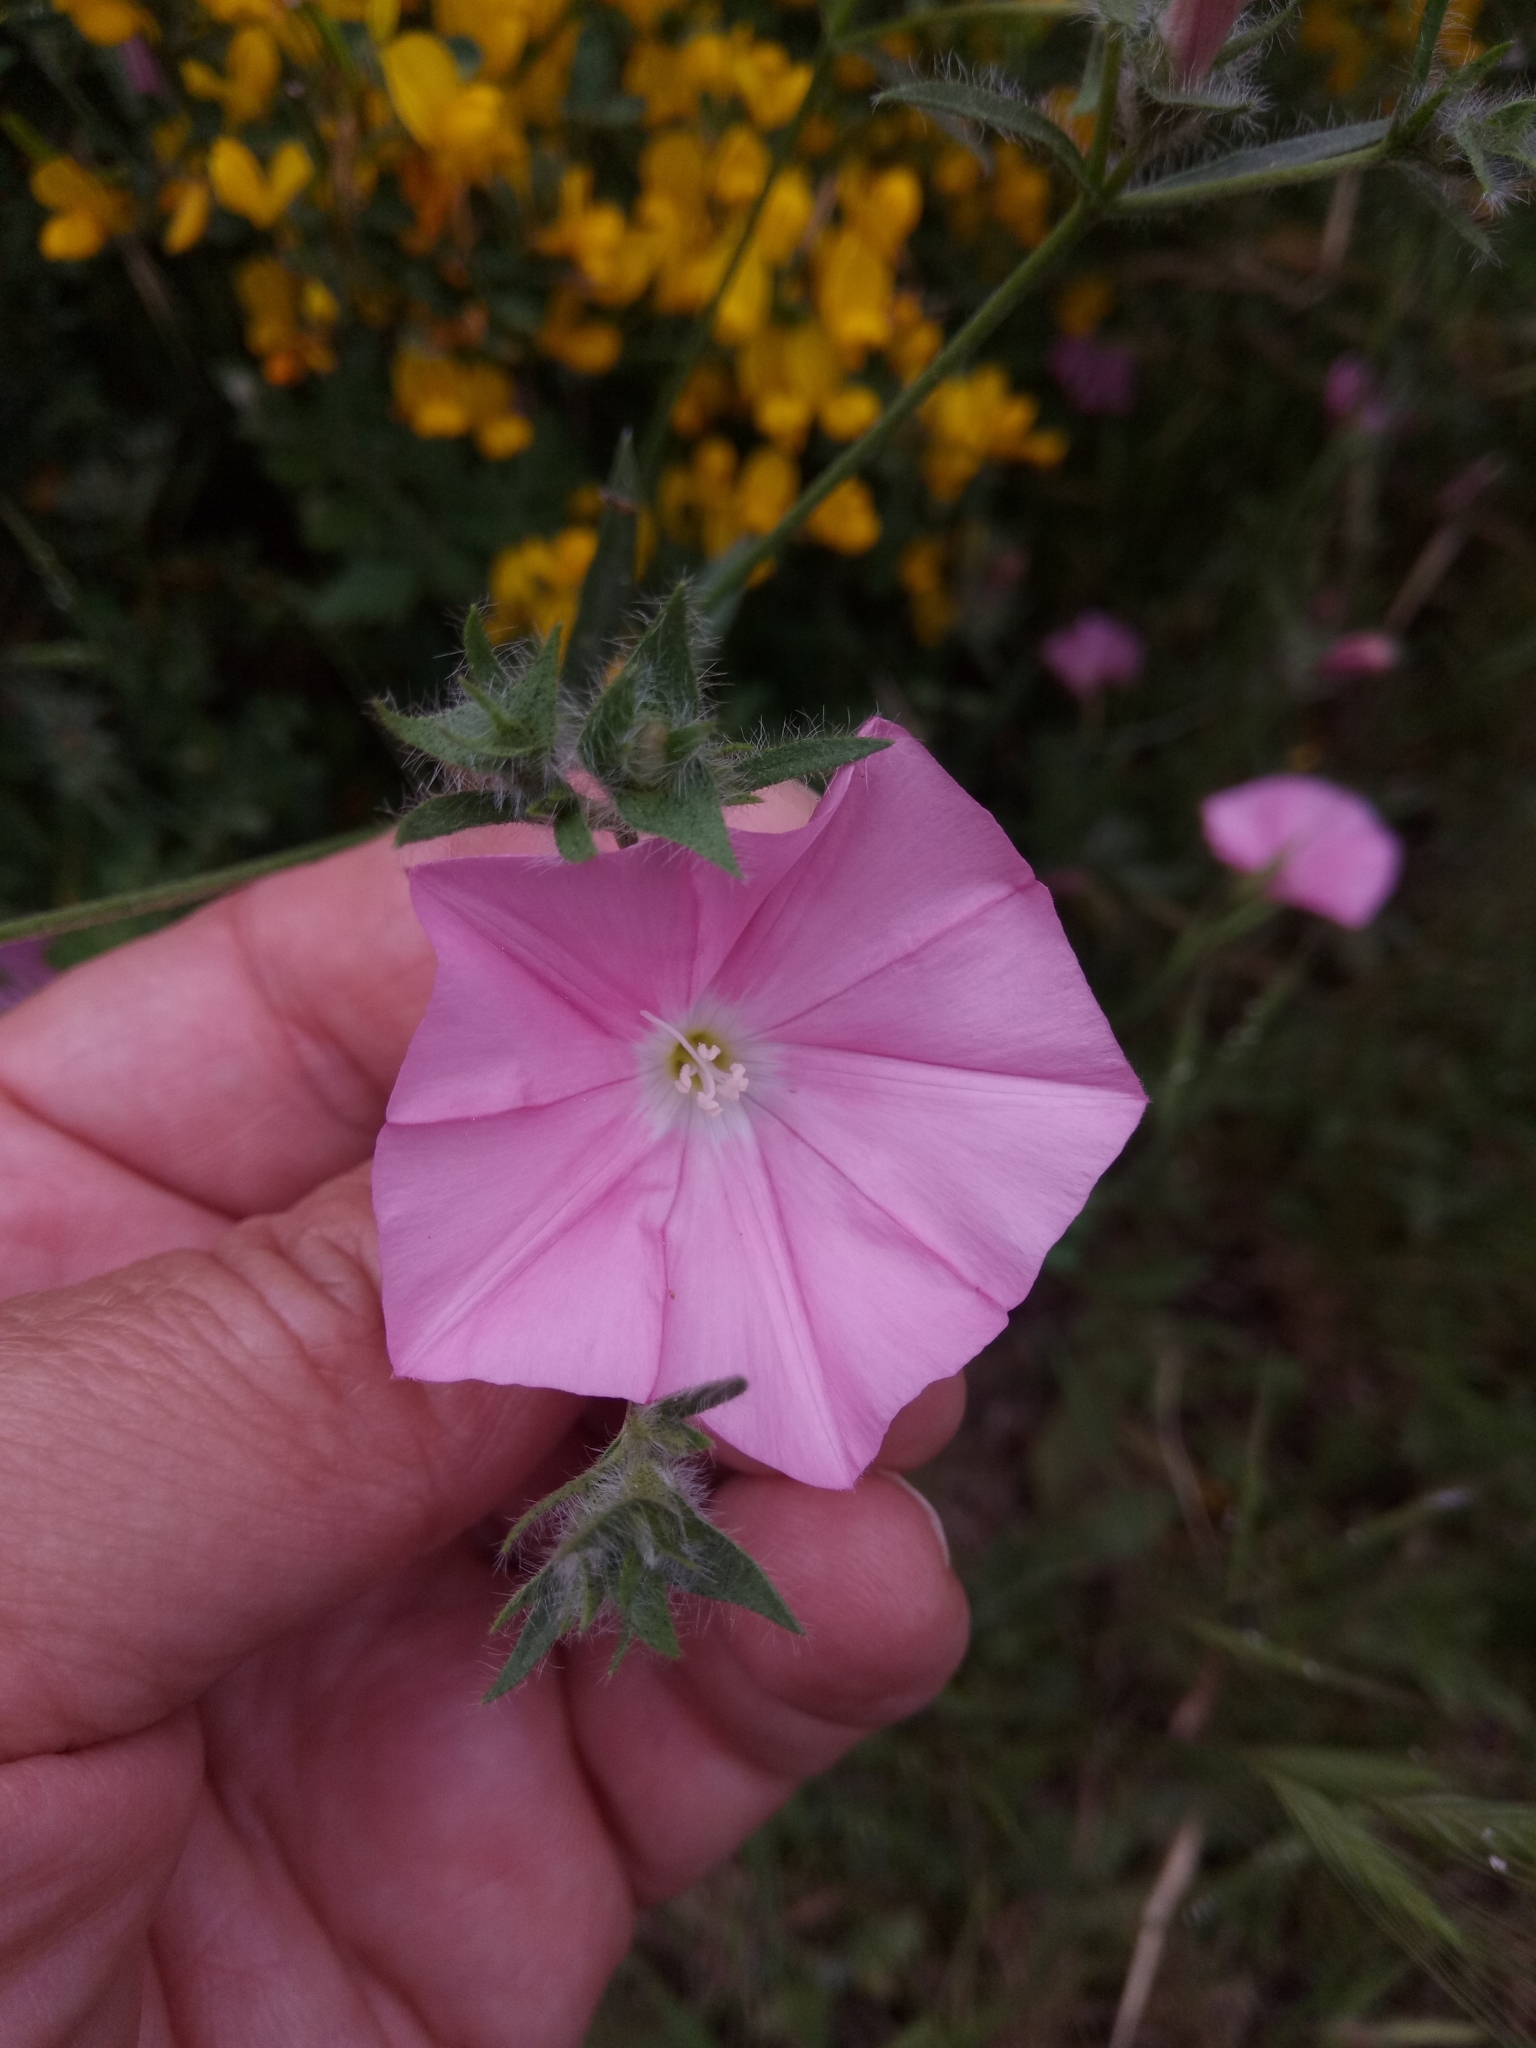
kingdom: Plantae
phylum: Tracheophyta
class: Magnoliopsida
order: Solanales
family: Convolvulaceae
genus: Convolvulus
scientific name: Convolvulus cantabrica
